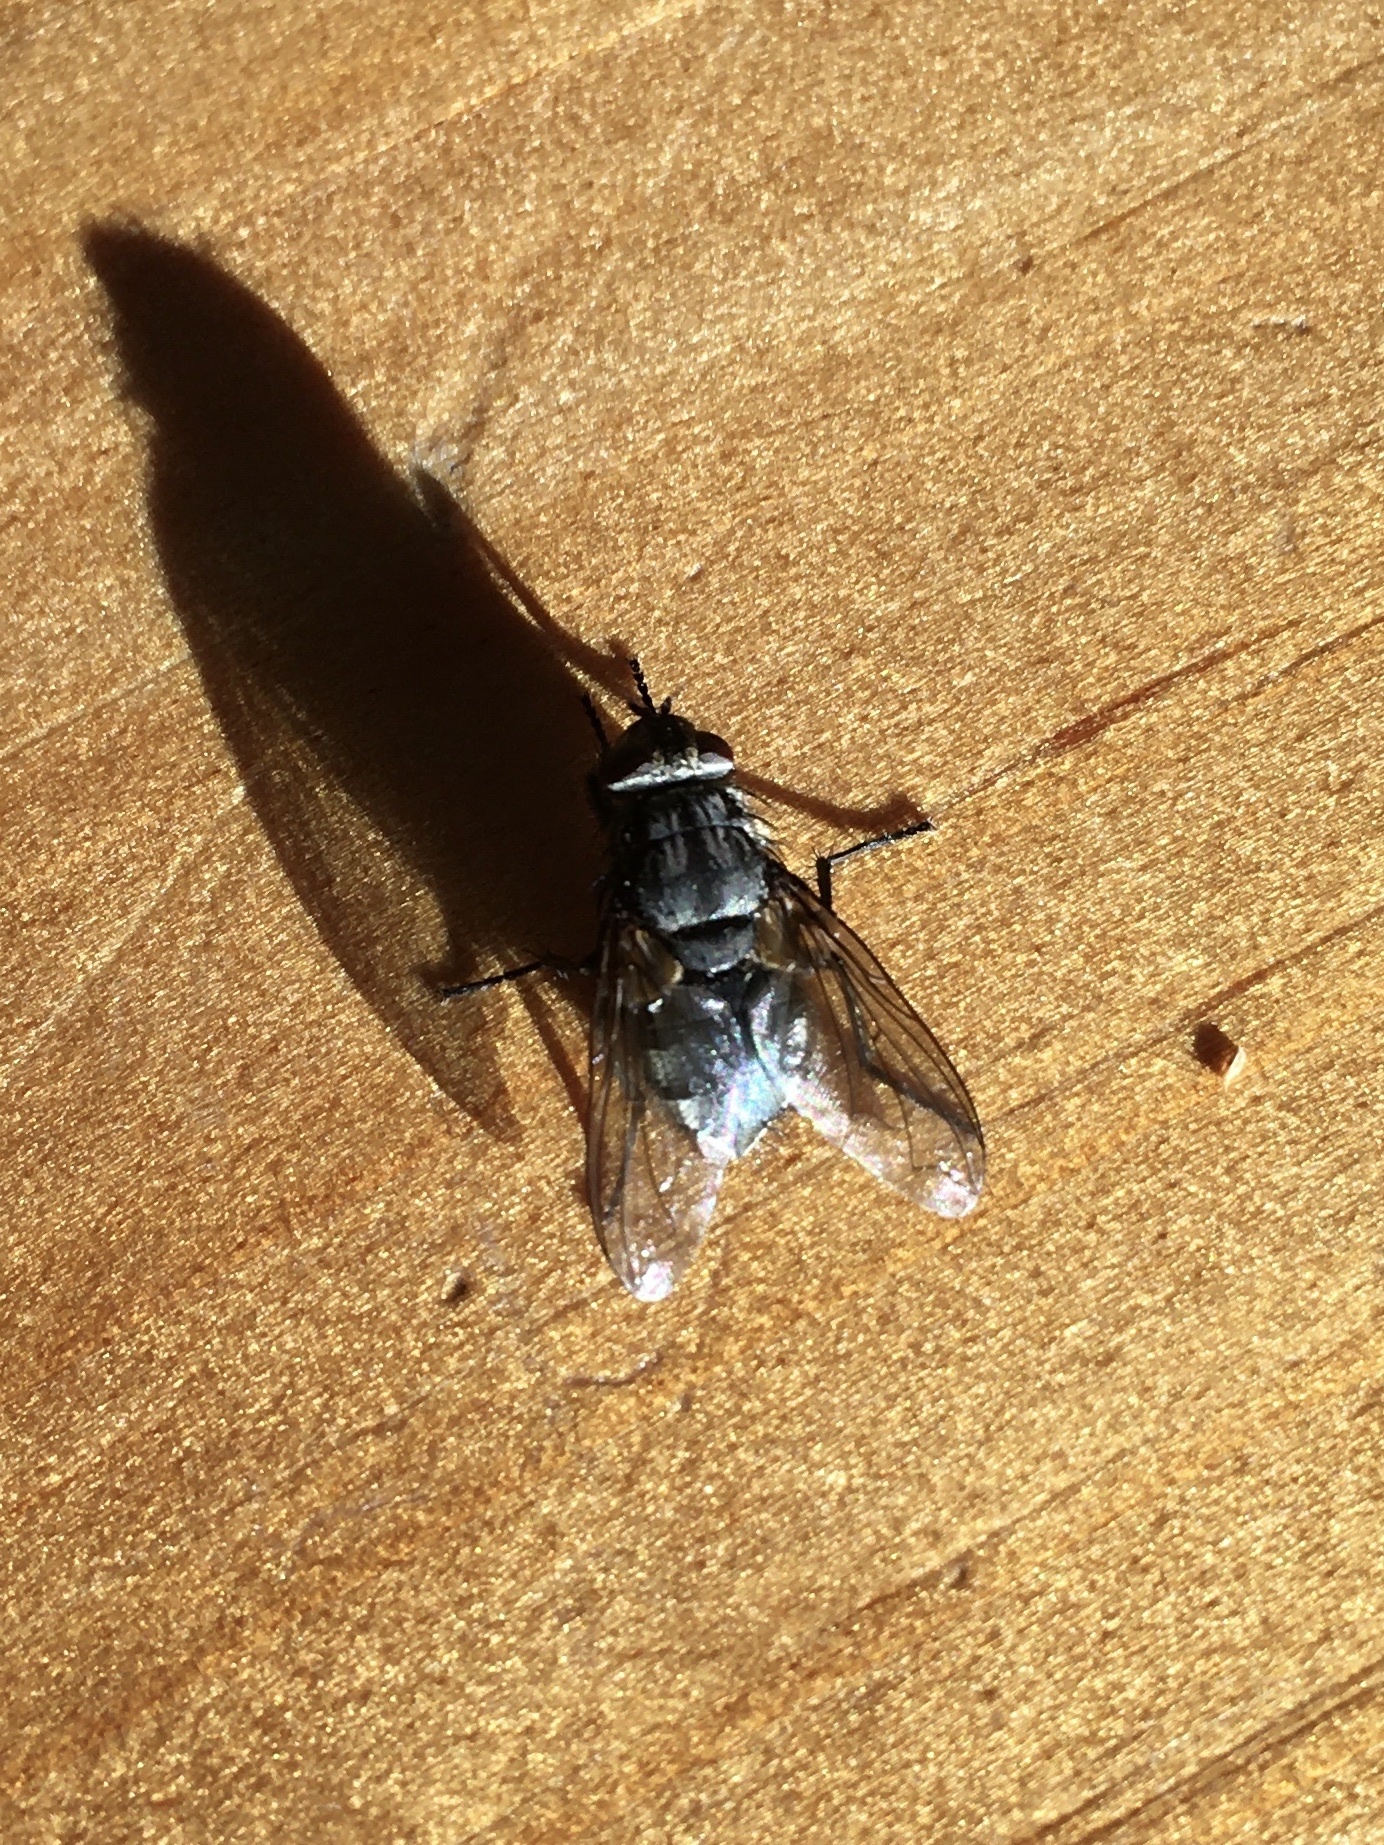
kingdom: Animalia
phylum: Arthropoda
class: Insecta
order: Diptera
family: Polleniidae
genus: Pollenia
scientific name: Pollenia vagabunda
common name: Vagabund cluster fly
